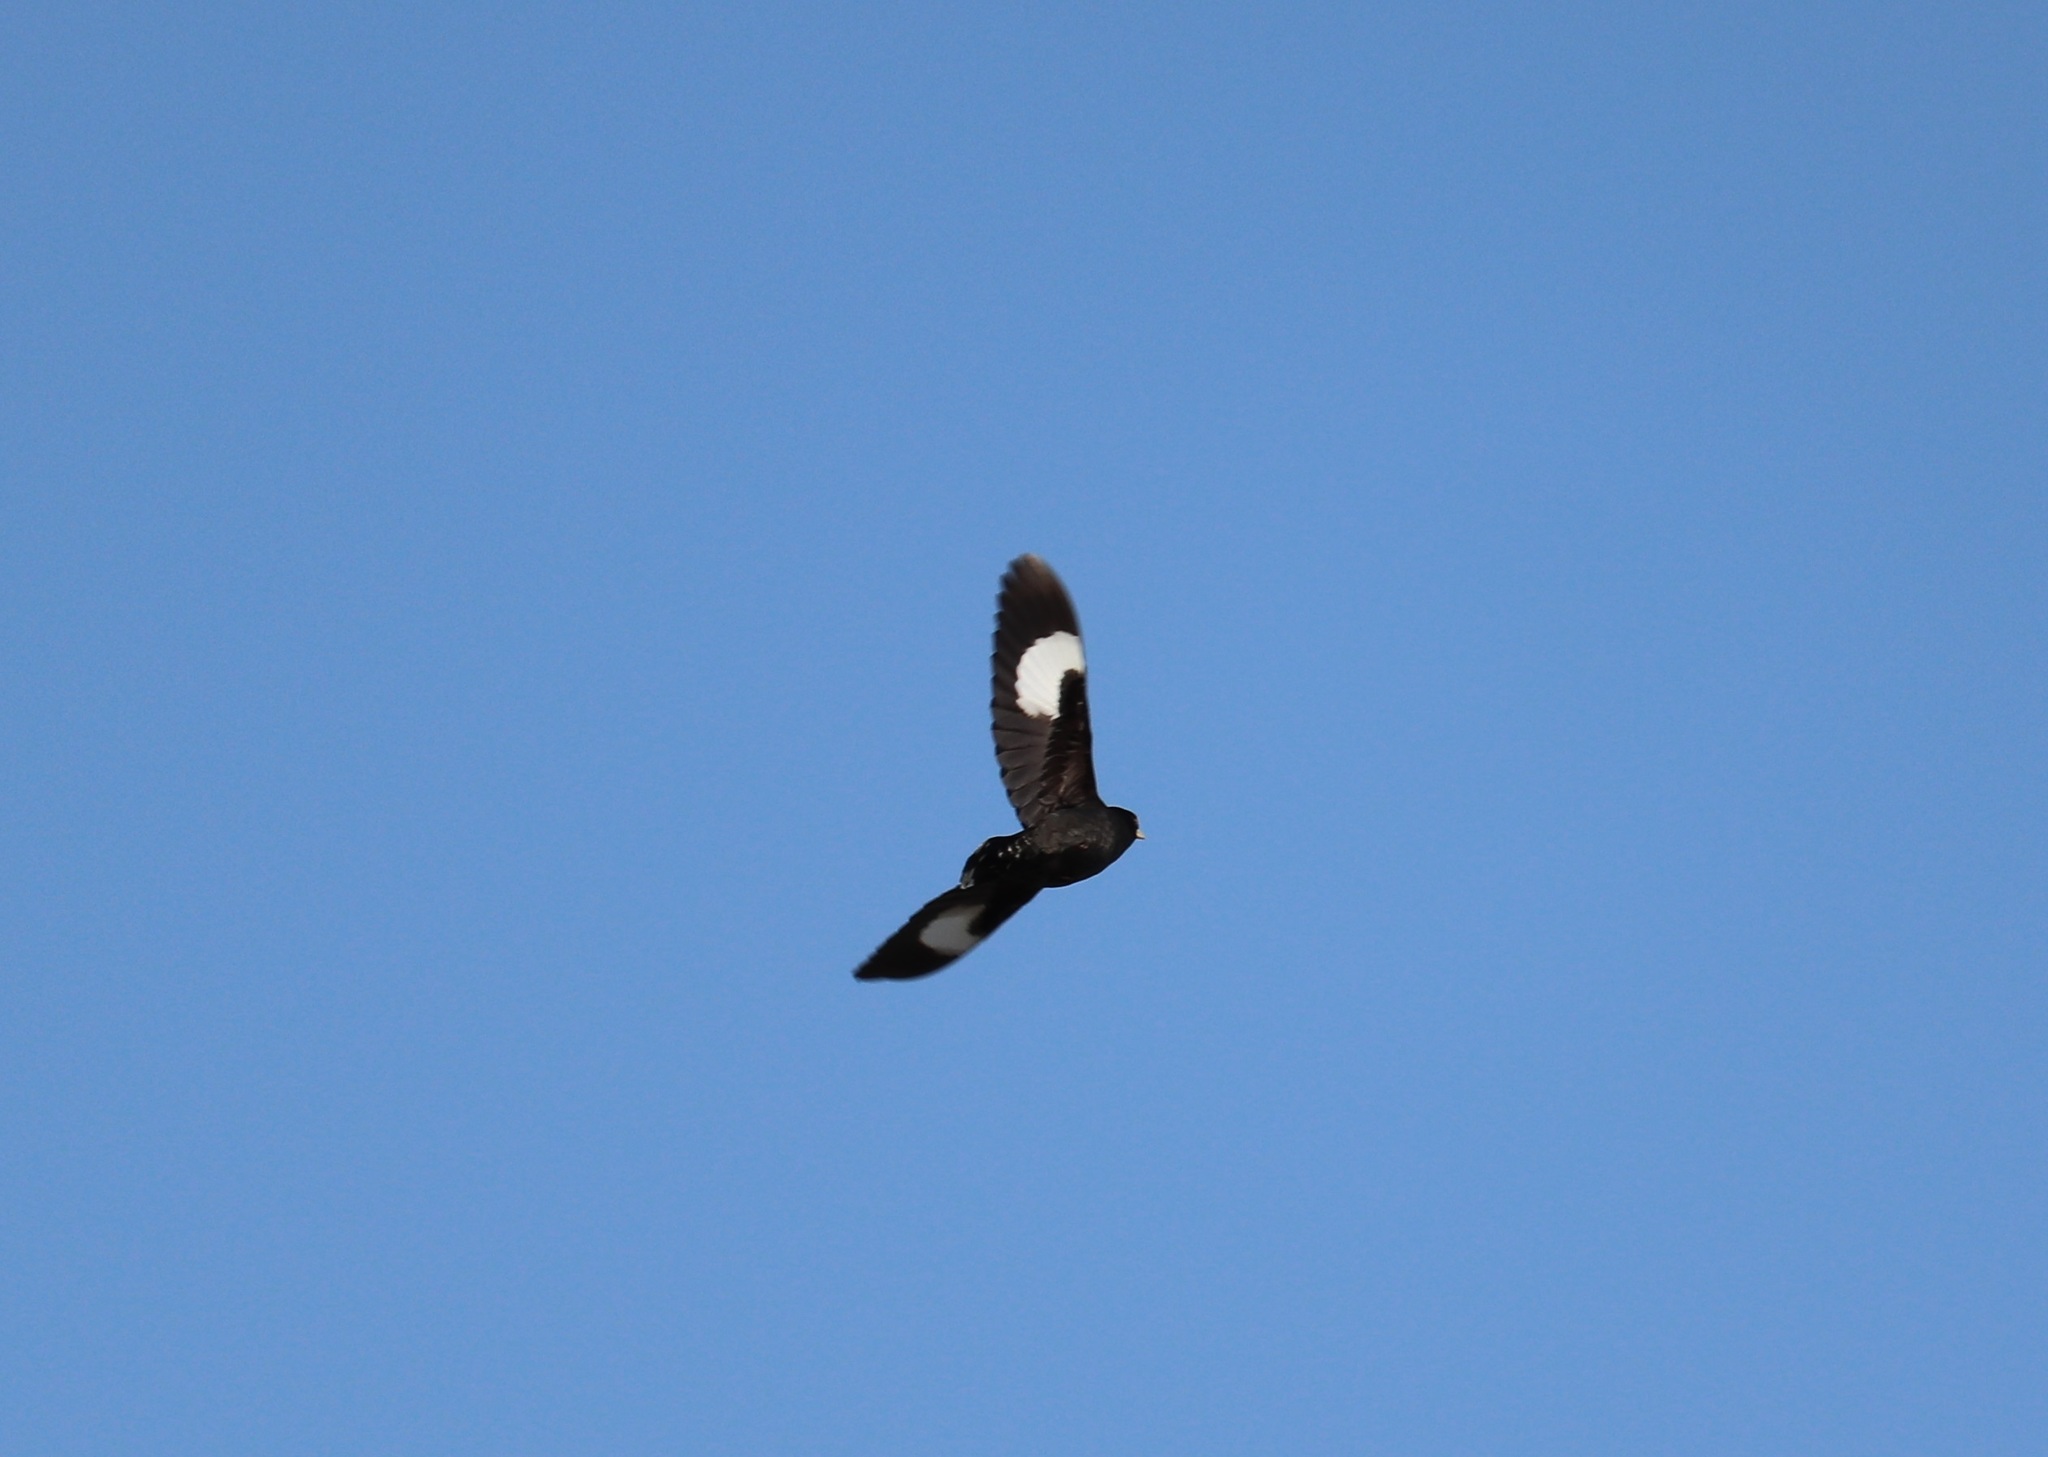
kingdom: Animalia
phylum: Chordata
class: Aves
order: Passeriformes
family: Sturnidae
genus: Acridotheres
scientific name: Acridotheres cristatellus
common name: Crested myna
